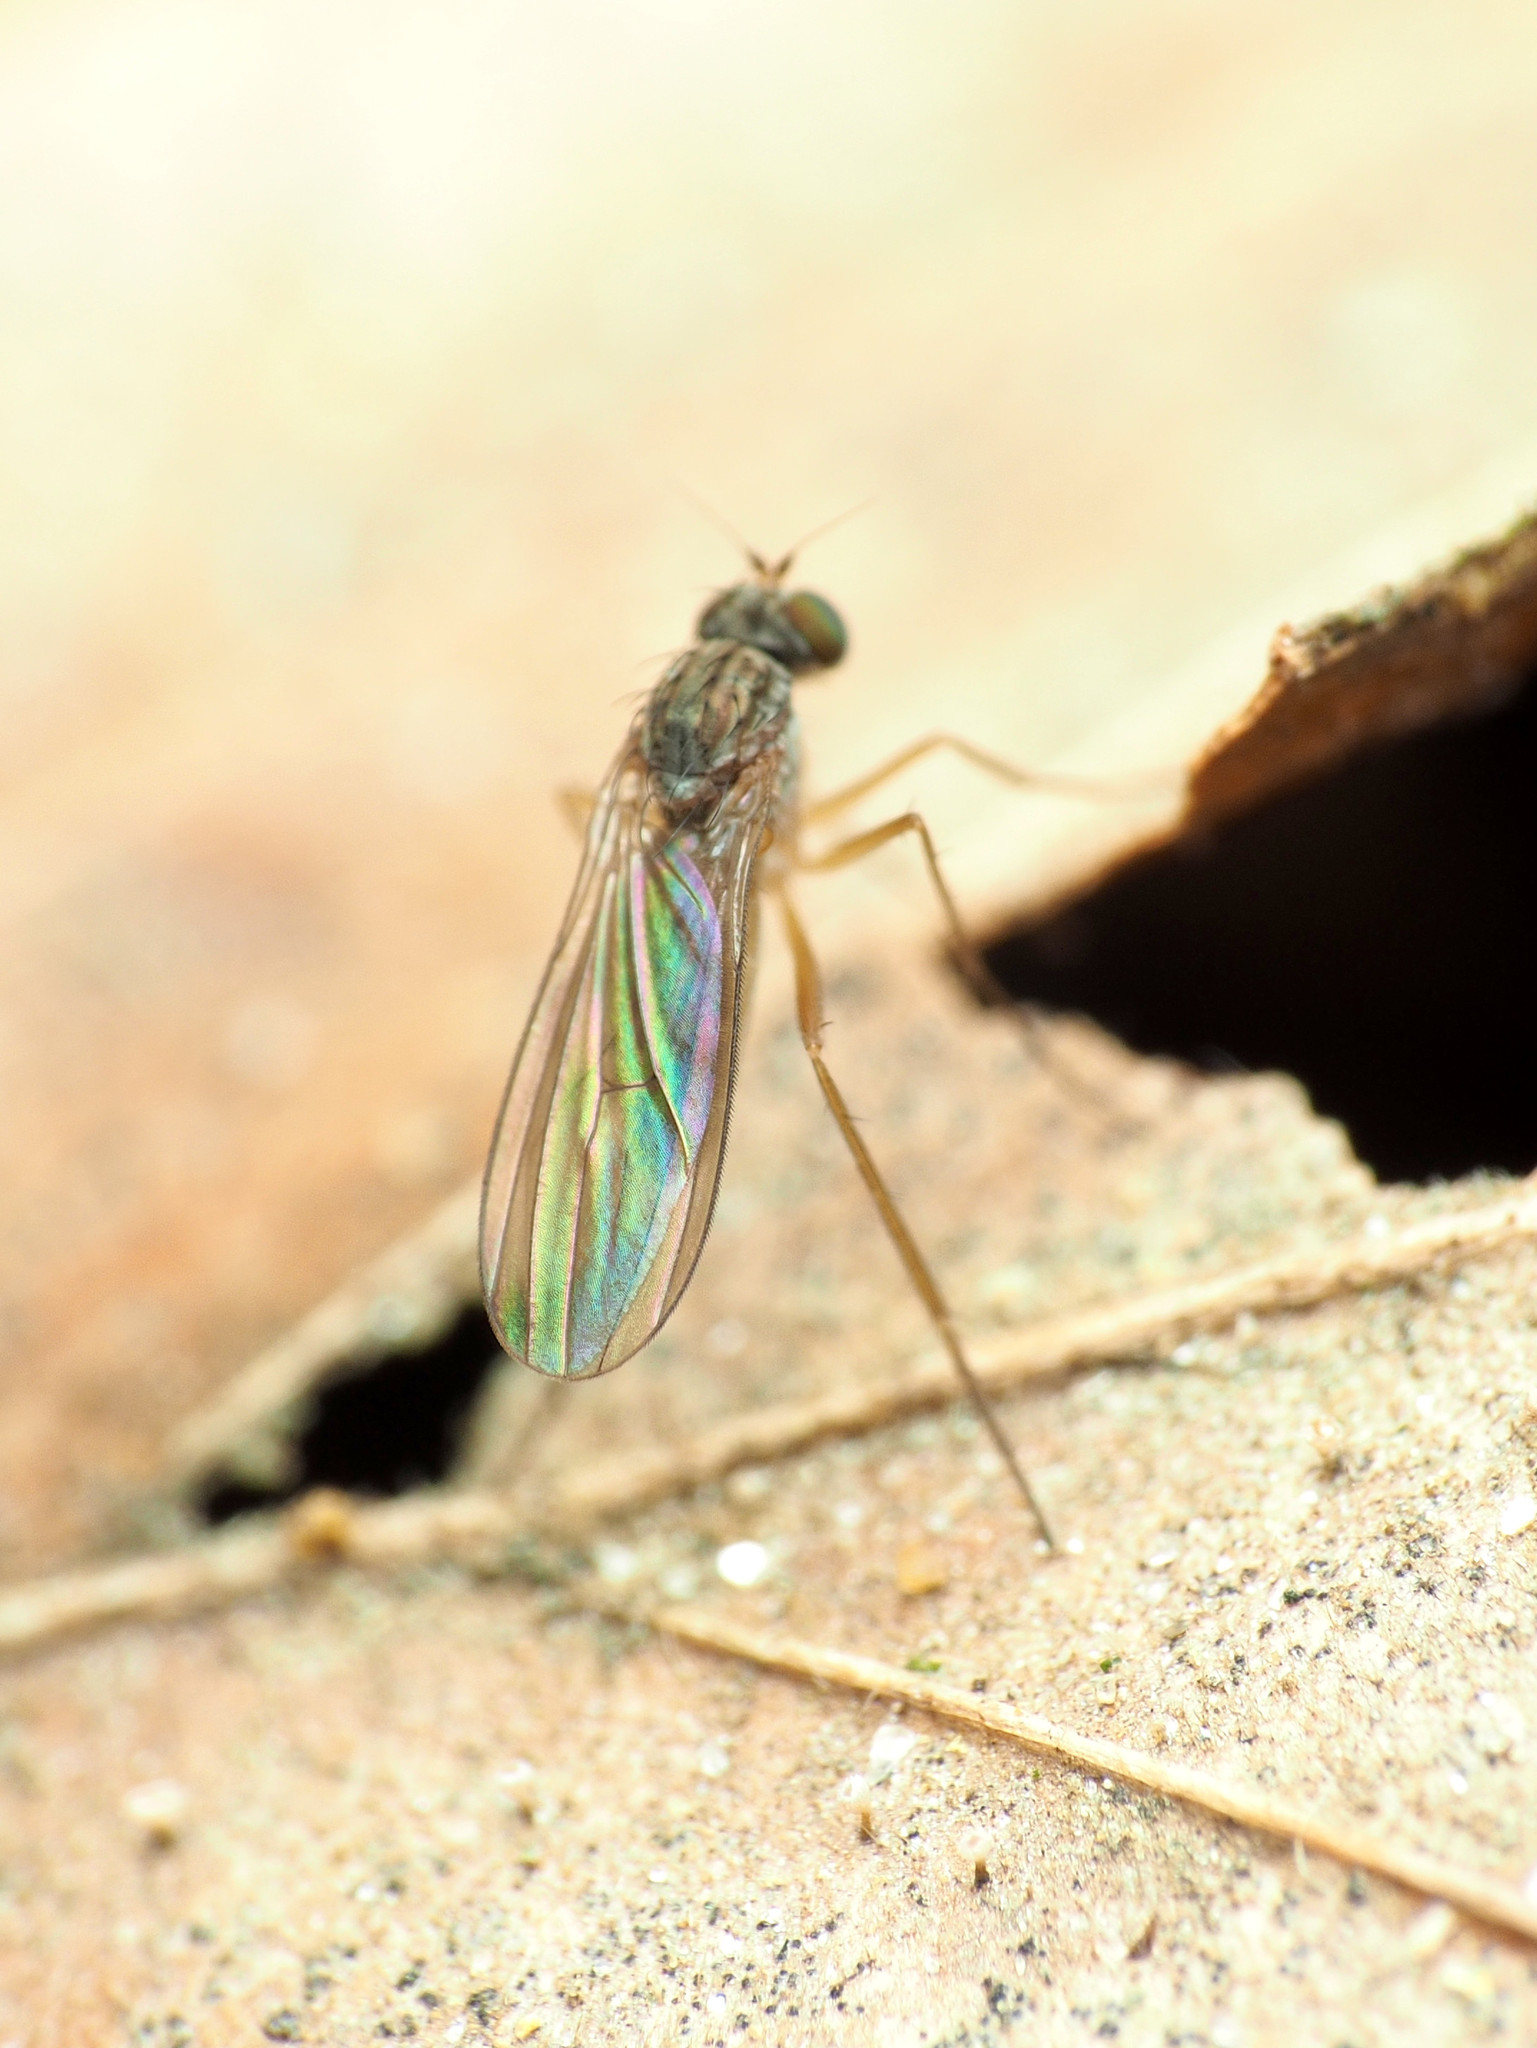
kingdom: Animalia
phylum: Arthropoda
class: Insecta
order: Diptera
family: Dolichopodidae
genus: Sympycnus
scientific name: Sympycnus lineatus
